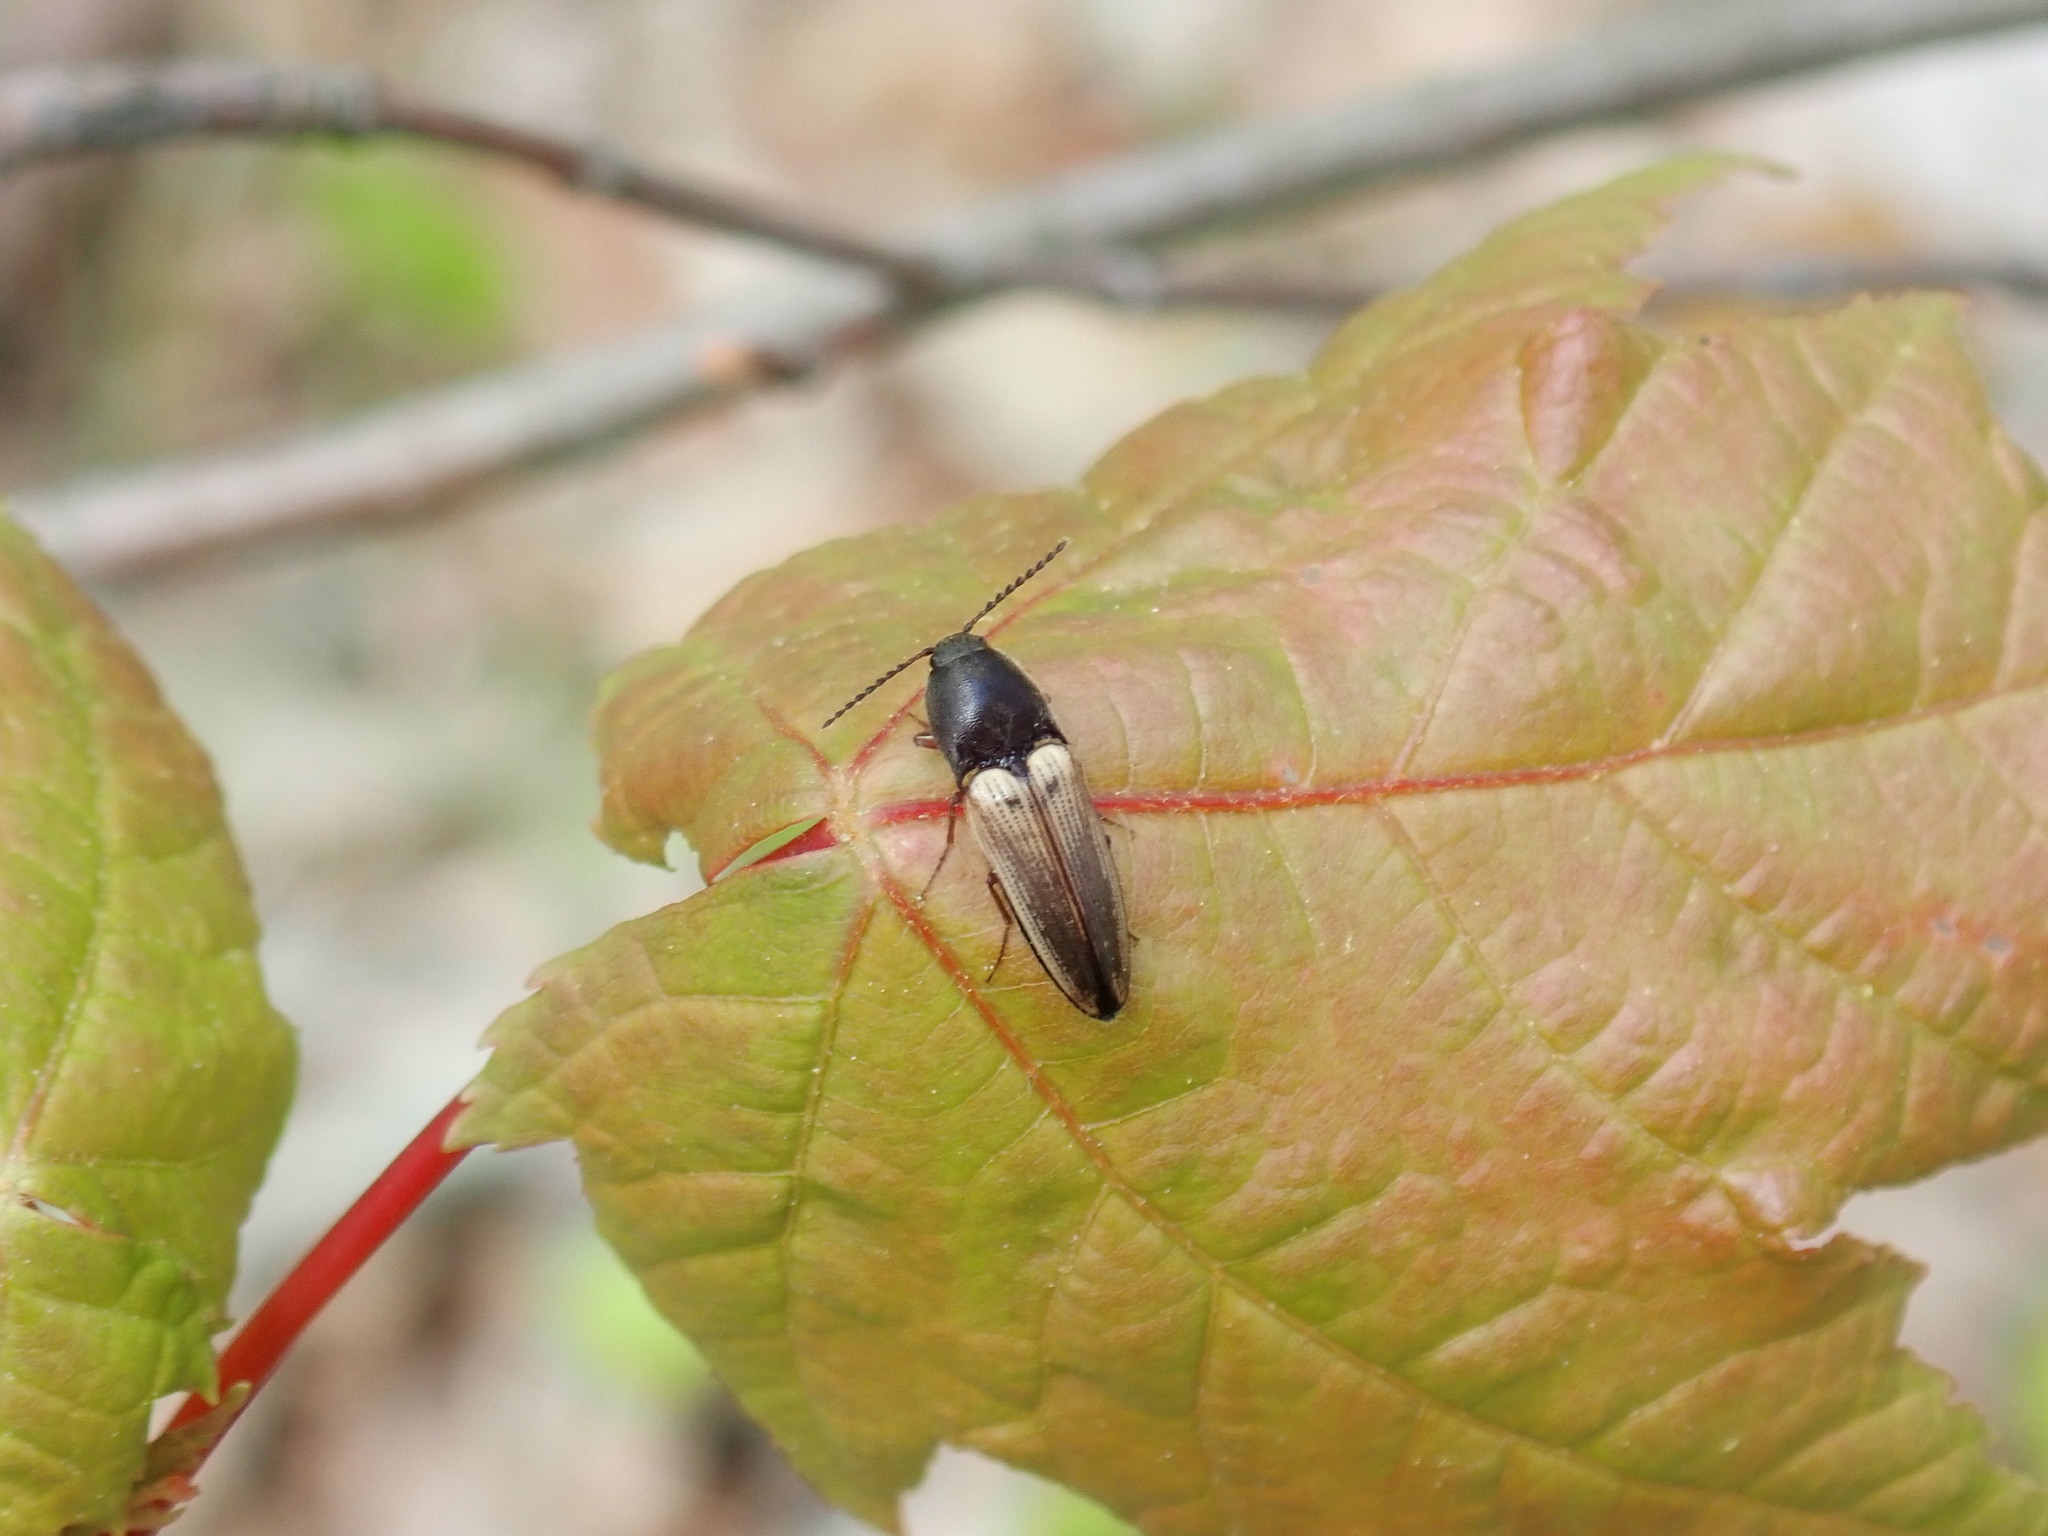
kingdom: Animalia
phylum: Arthropoda
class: Insecta
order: Coleoptera
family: Elateridae
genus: Ampedus
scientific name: Ampedus nigricollis
